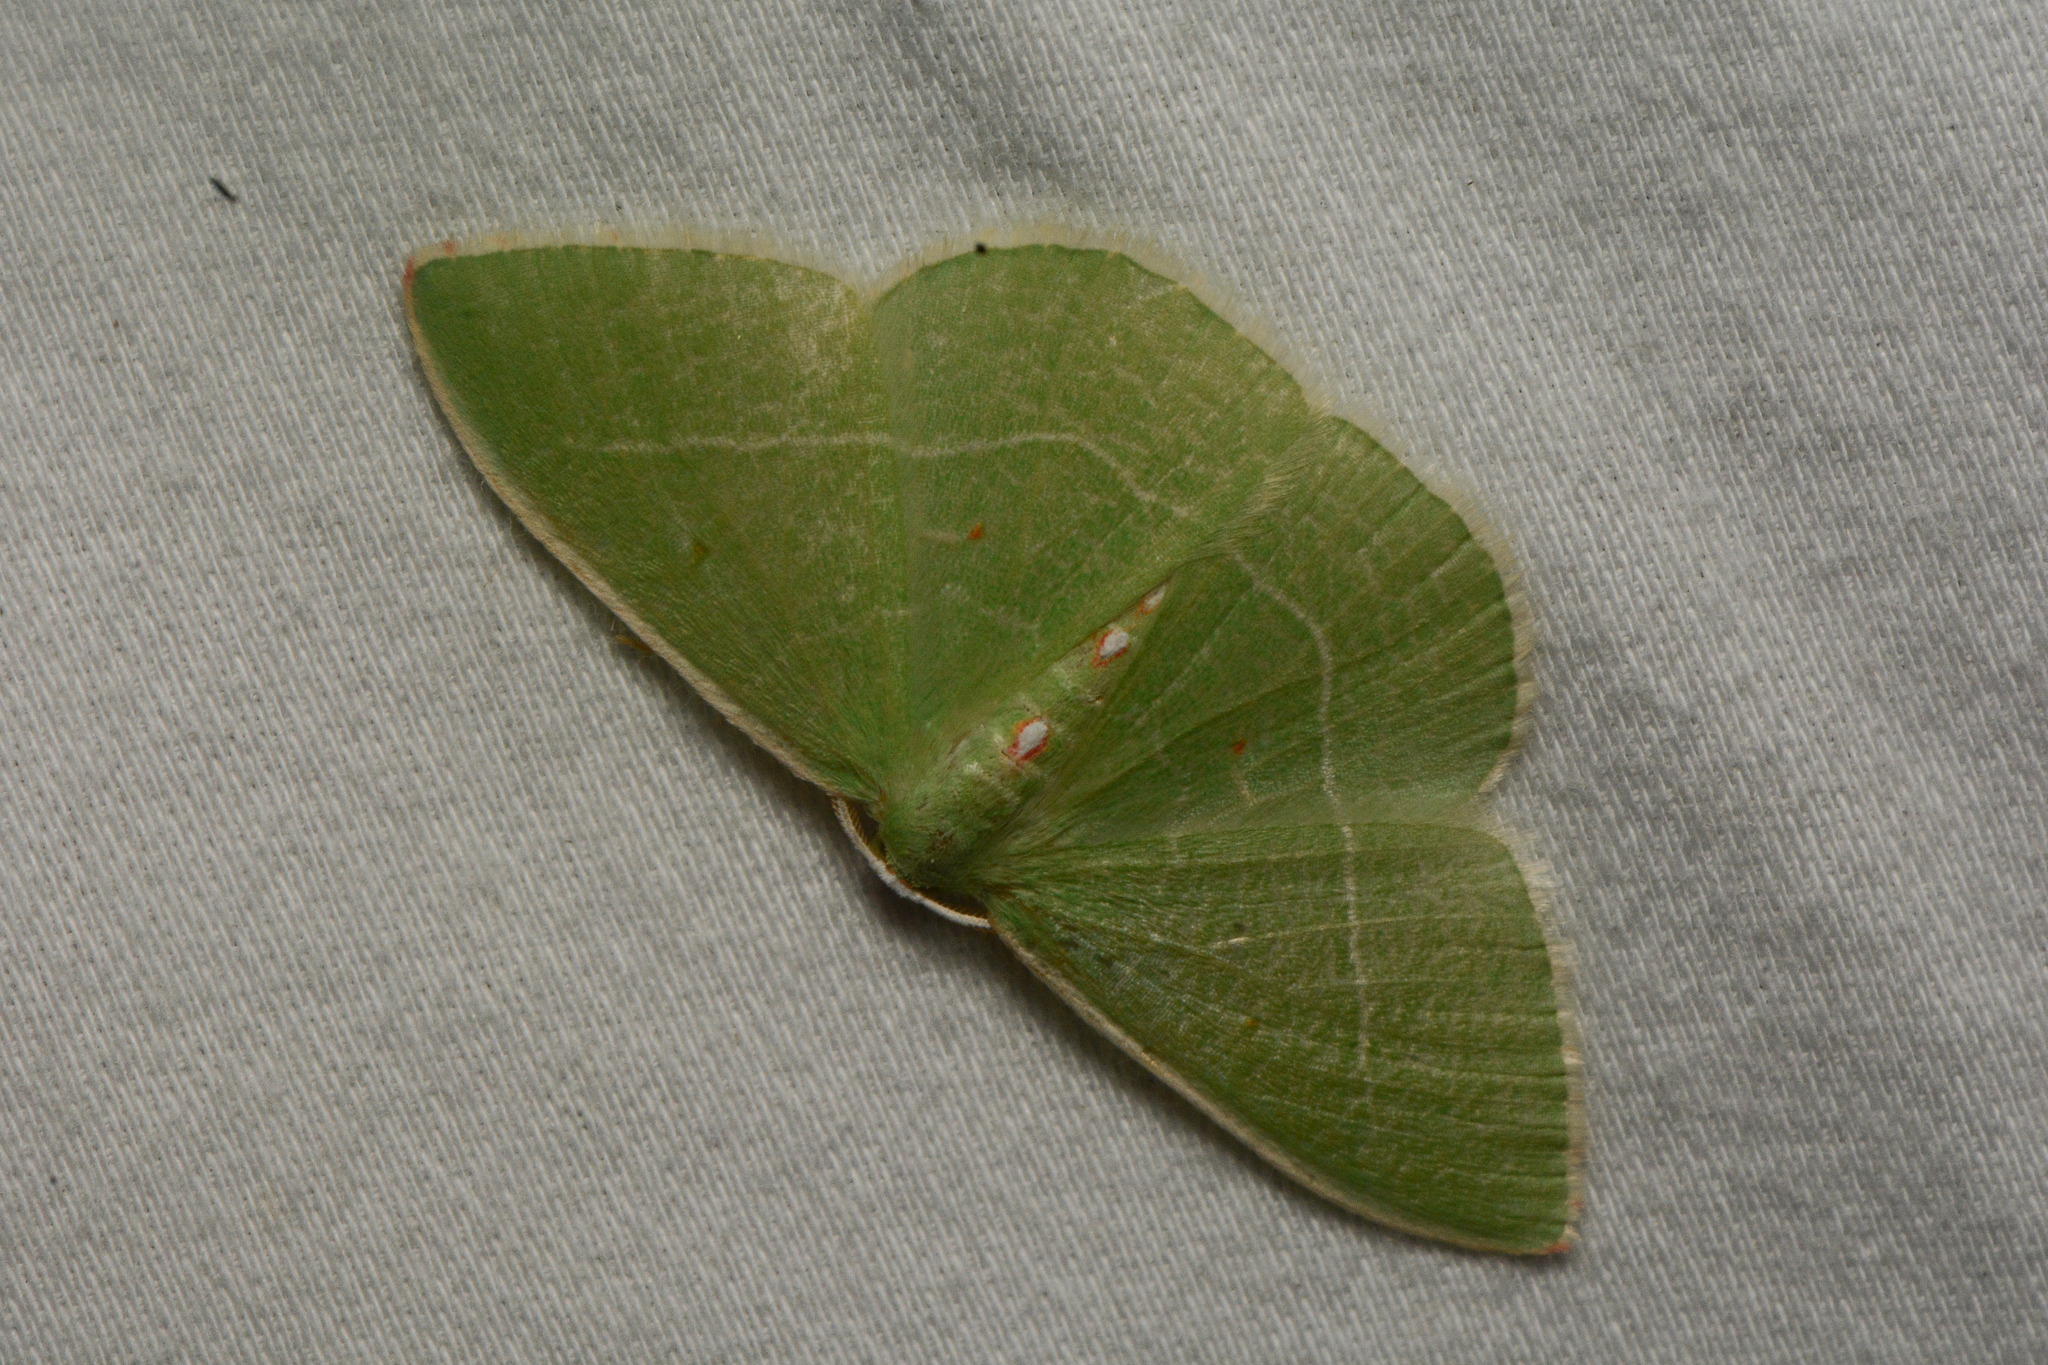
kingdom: Animalia
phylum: Arthropoda
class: Insecta
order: Lepidoptera
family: Geometridae
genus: Nemoria
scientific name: Nemoria darwiniata
